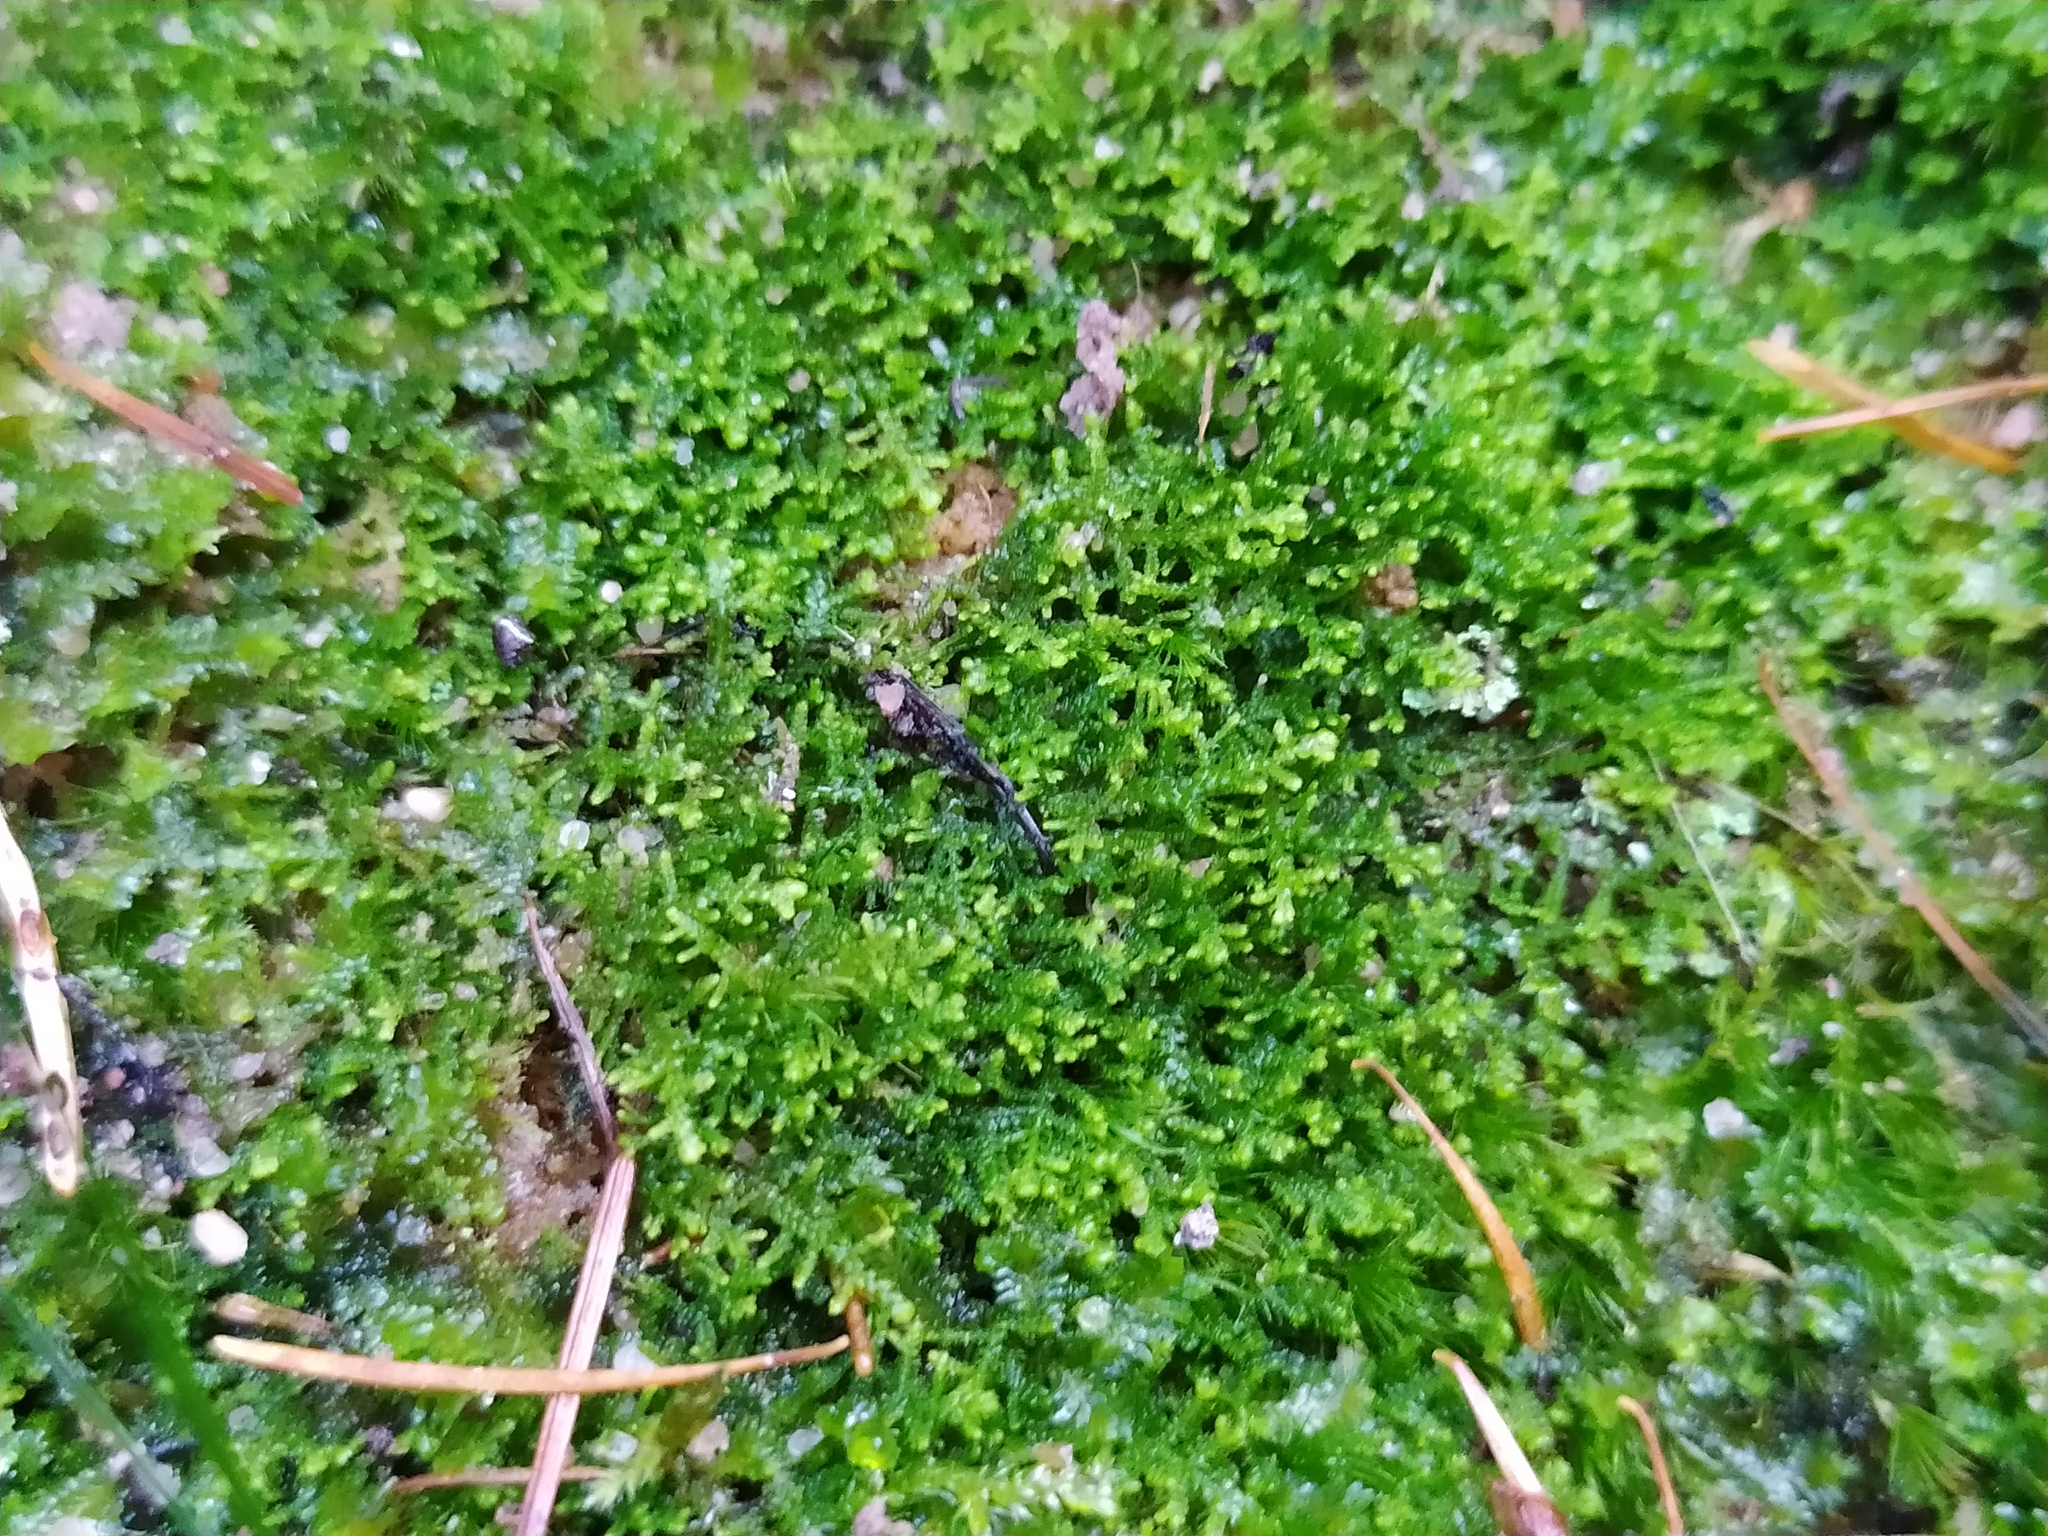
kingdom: Plantae
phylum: Marchantiophyta
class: Jungermanniopsida
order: Jungermanniales
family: Lepidoziaceae
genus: Lepidozia
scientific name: Lepidozia reptans
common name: Creeping fingerwort
